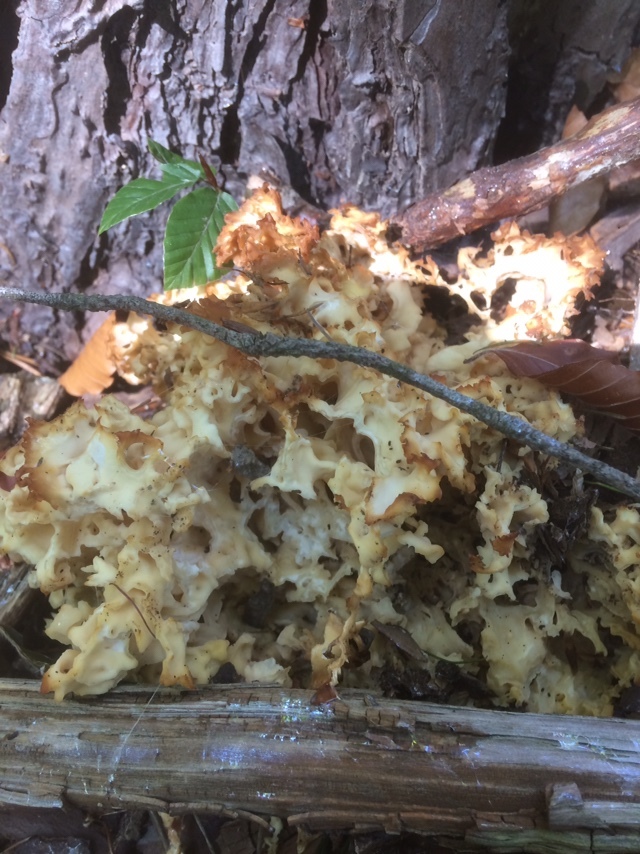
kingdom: Fungi
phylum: Basidiomycota
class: Agaricomycetes
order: Polyporales
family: Sparassidaceae
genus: Sparassis
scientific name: Sparassis crispa
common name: Brain fungus
